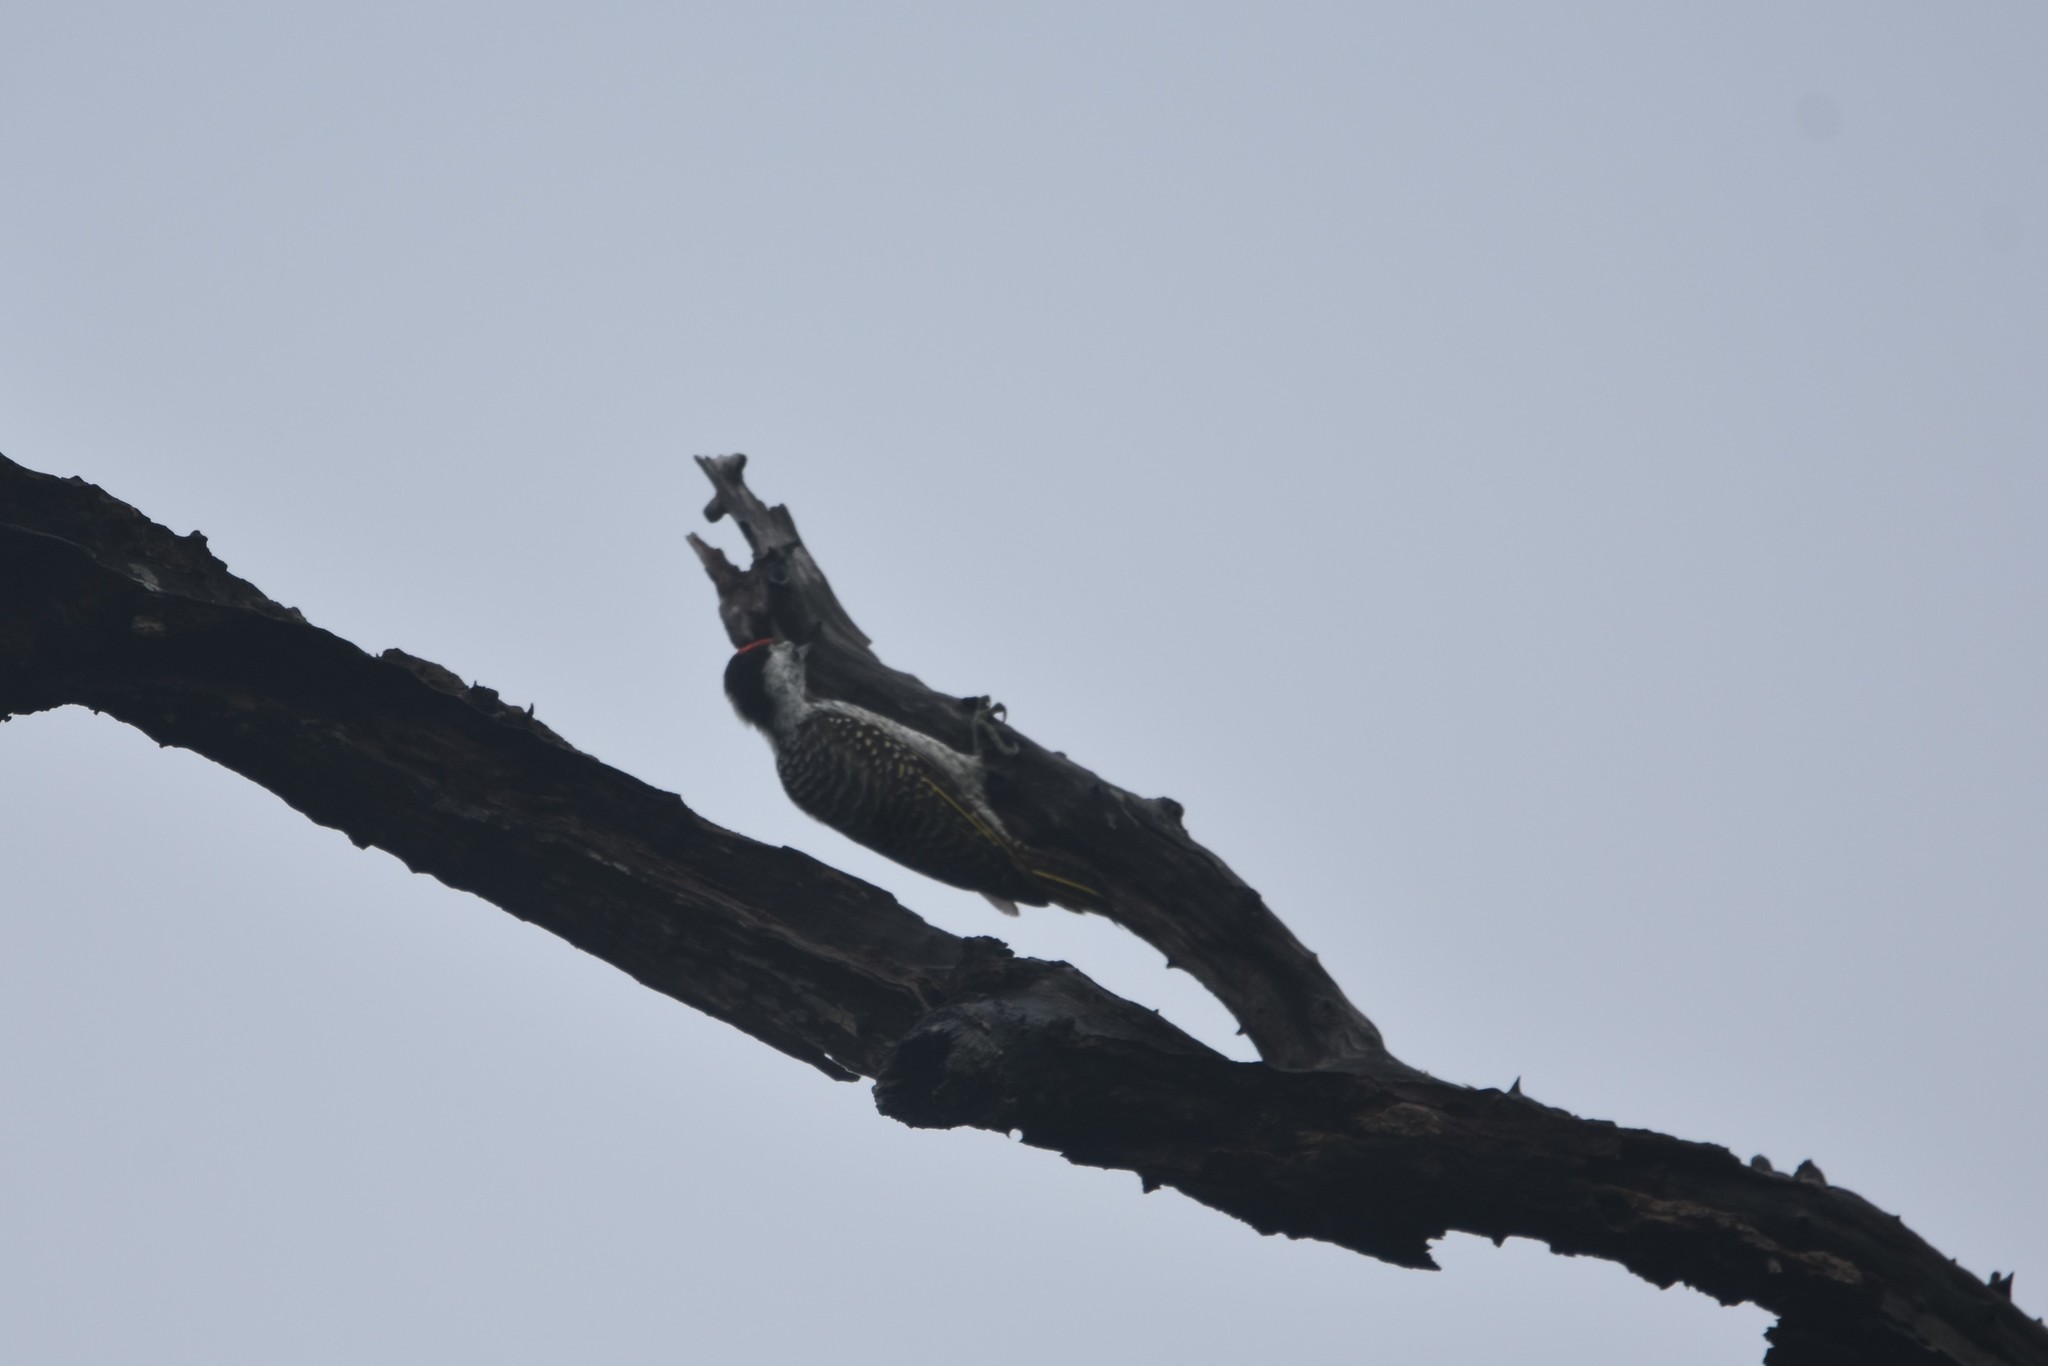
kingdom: Animalia
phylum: Chordata
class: Aves
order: Piciformes
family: Picidae
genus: Dendropicos
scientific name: Dendropicos fuscescens
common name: Cardinal woodpecker
